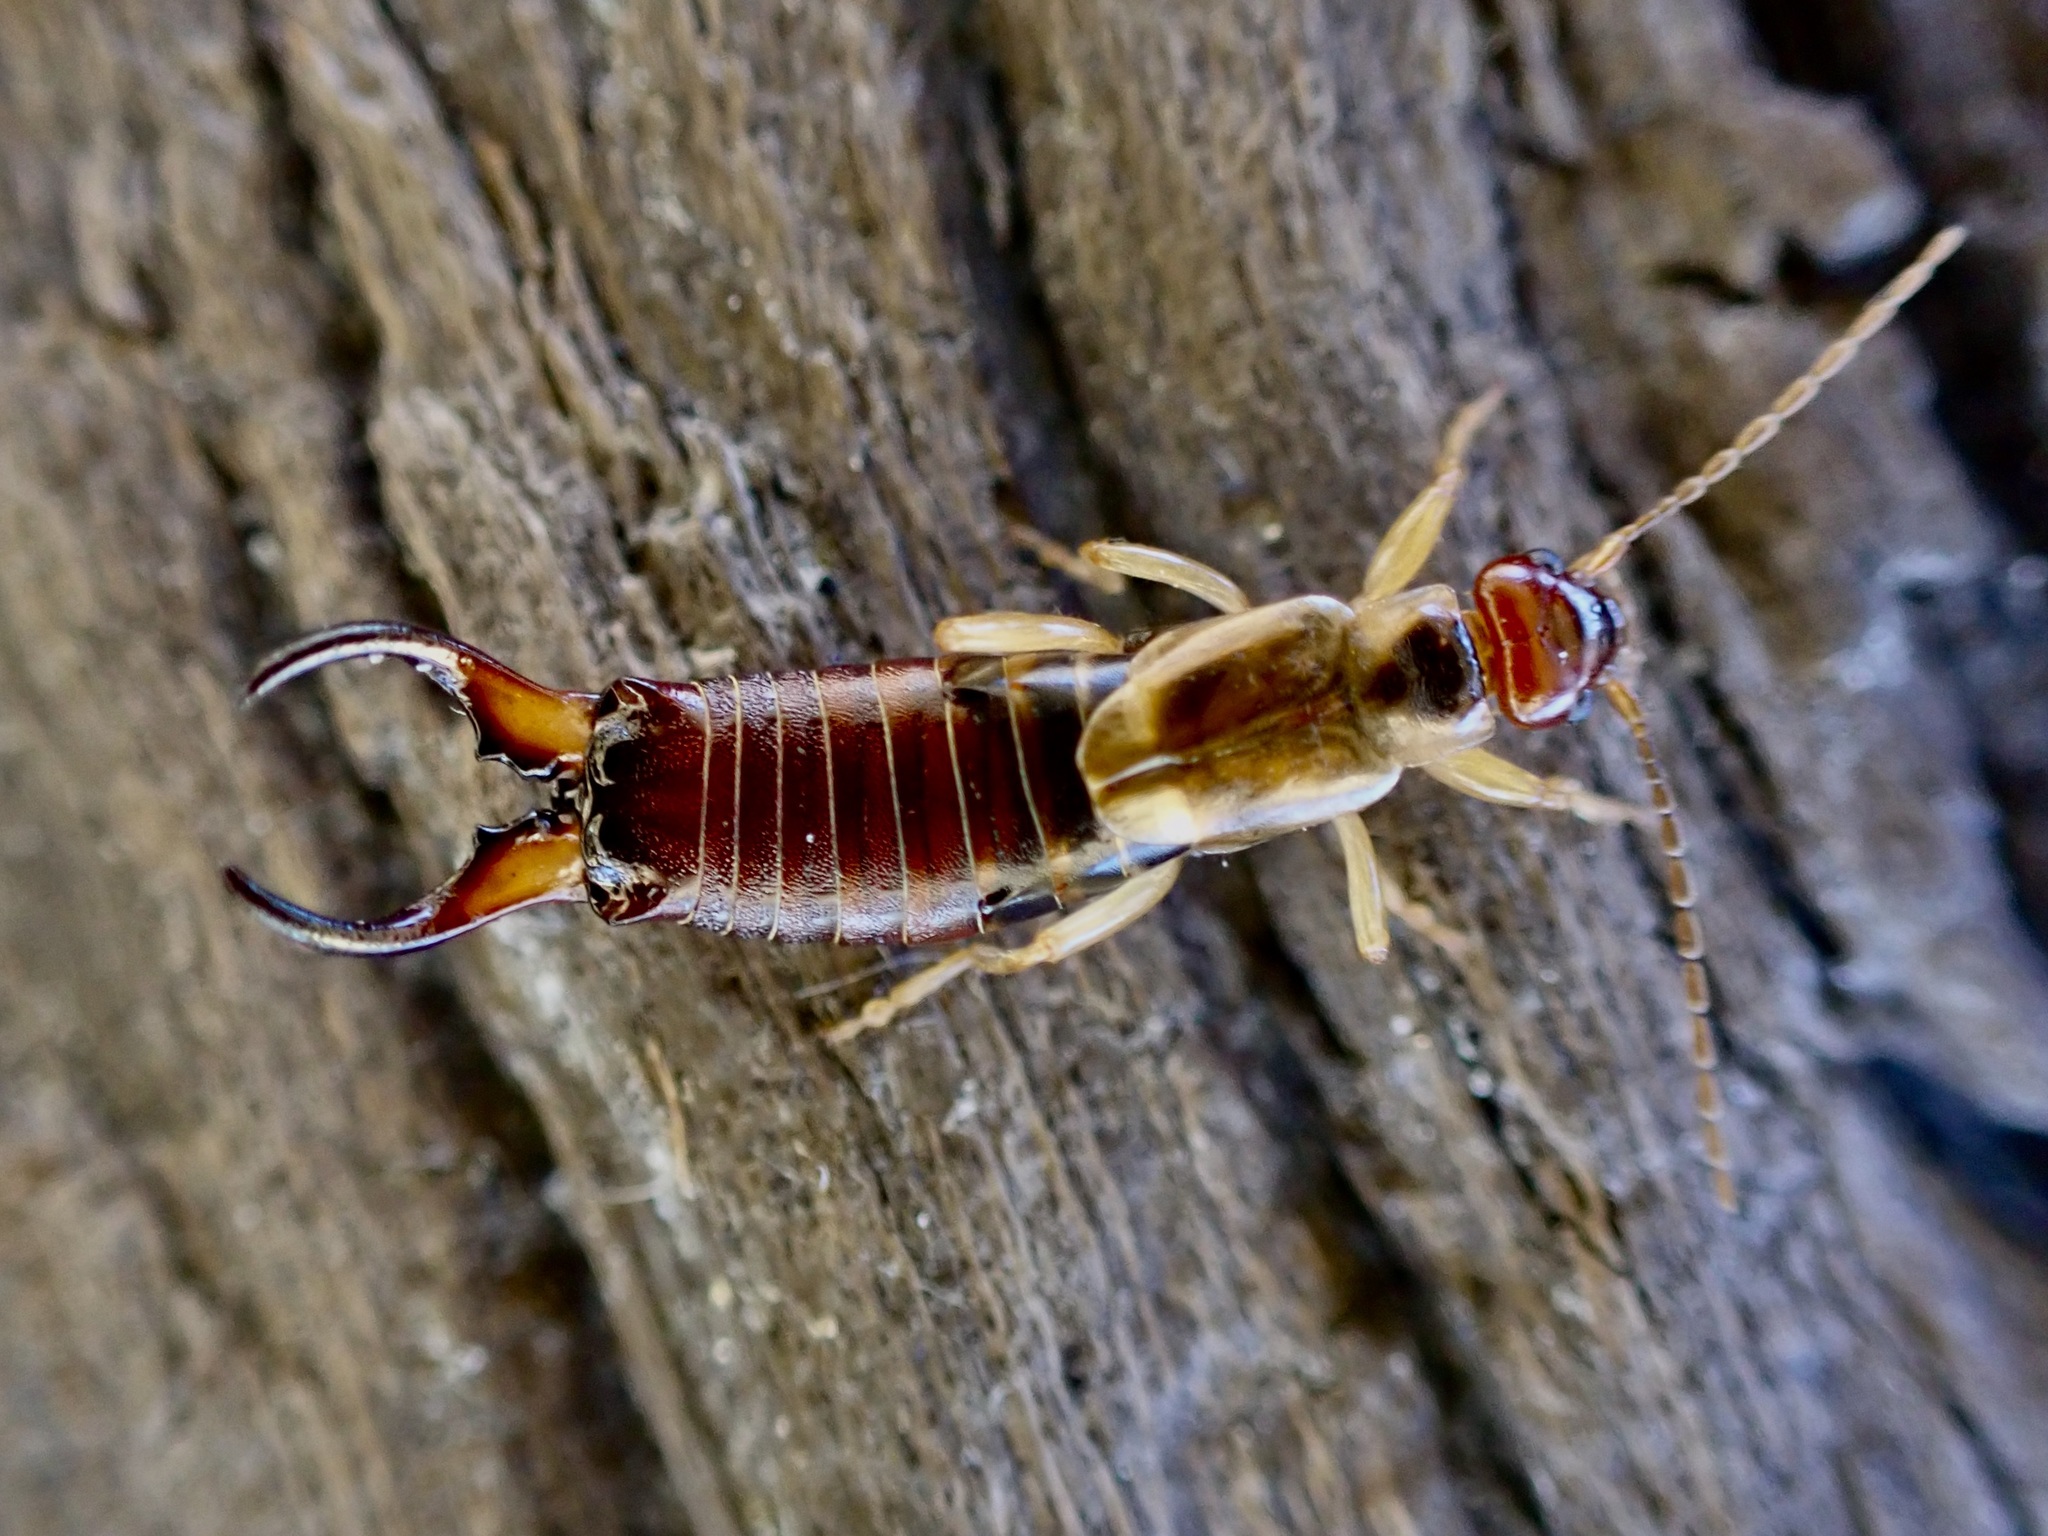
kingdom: Animalia
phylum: Arthropoda
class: Insecta
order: Dermaptera
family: Forficulidae
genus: Forficula
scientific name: Forficula
